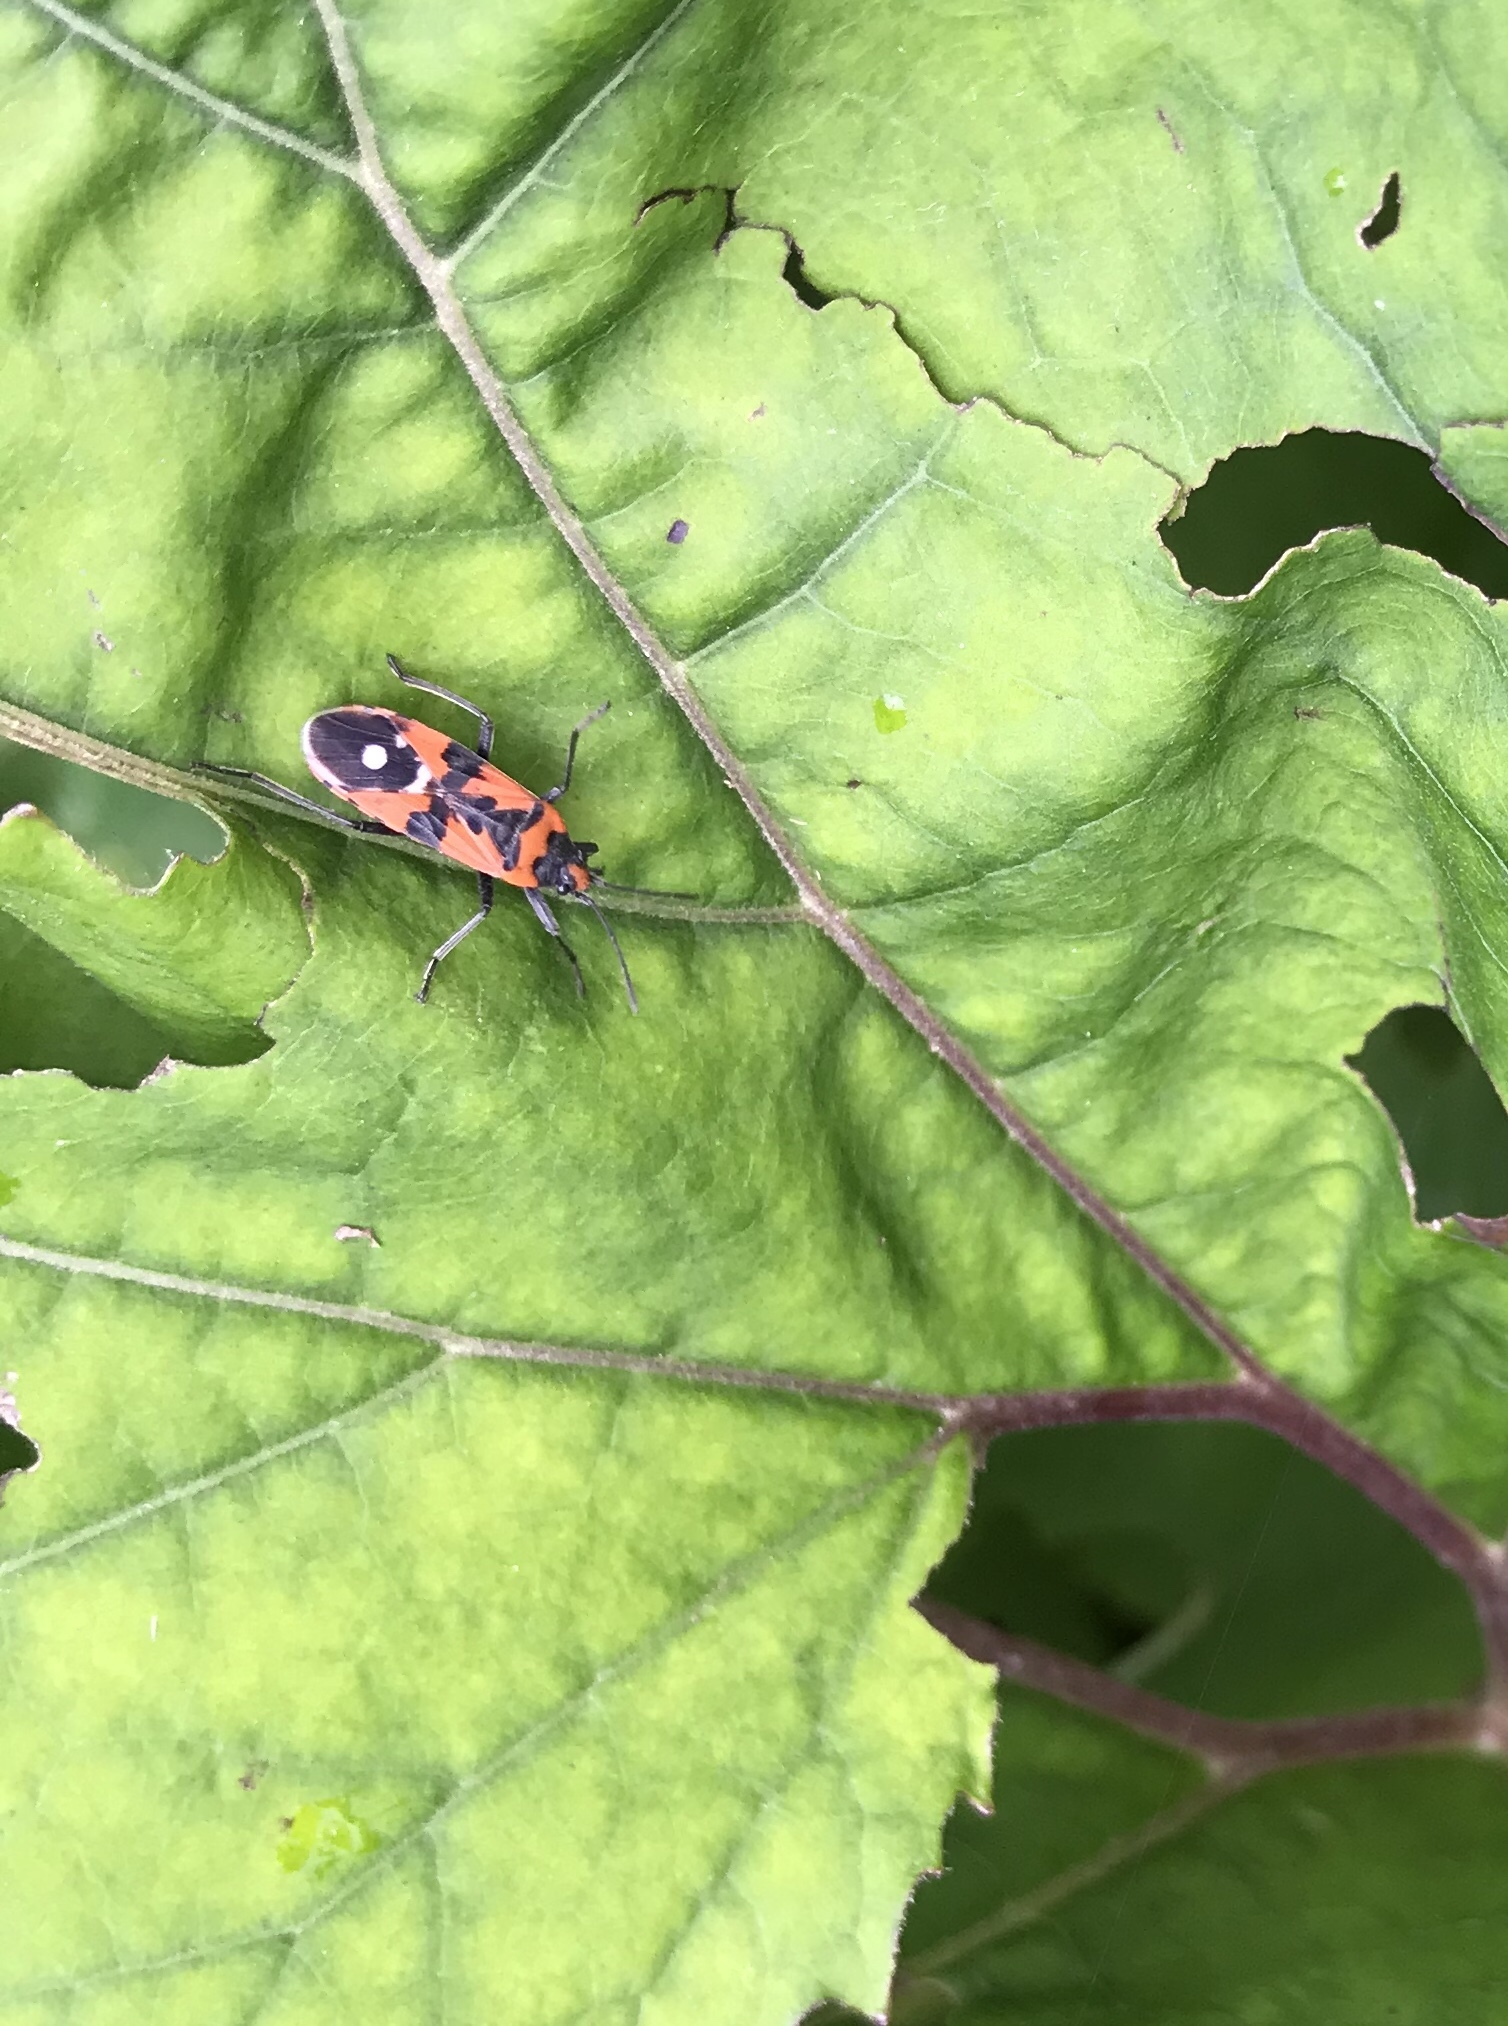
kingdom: Animalia
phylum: Arthropoda
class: Insecta
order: Hemiptera
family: Lygaeidae
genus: Lygaeus
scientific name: Lygaeus equestris
